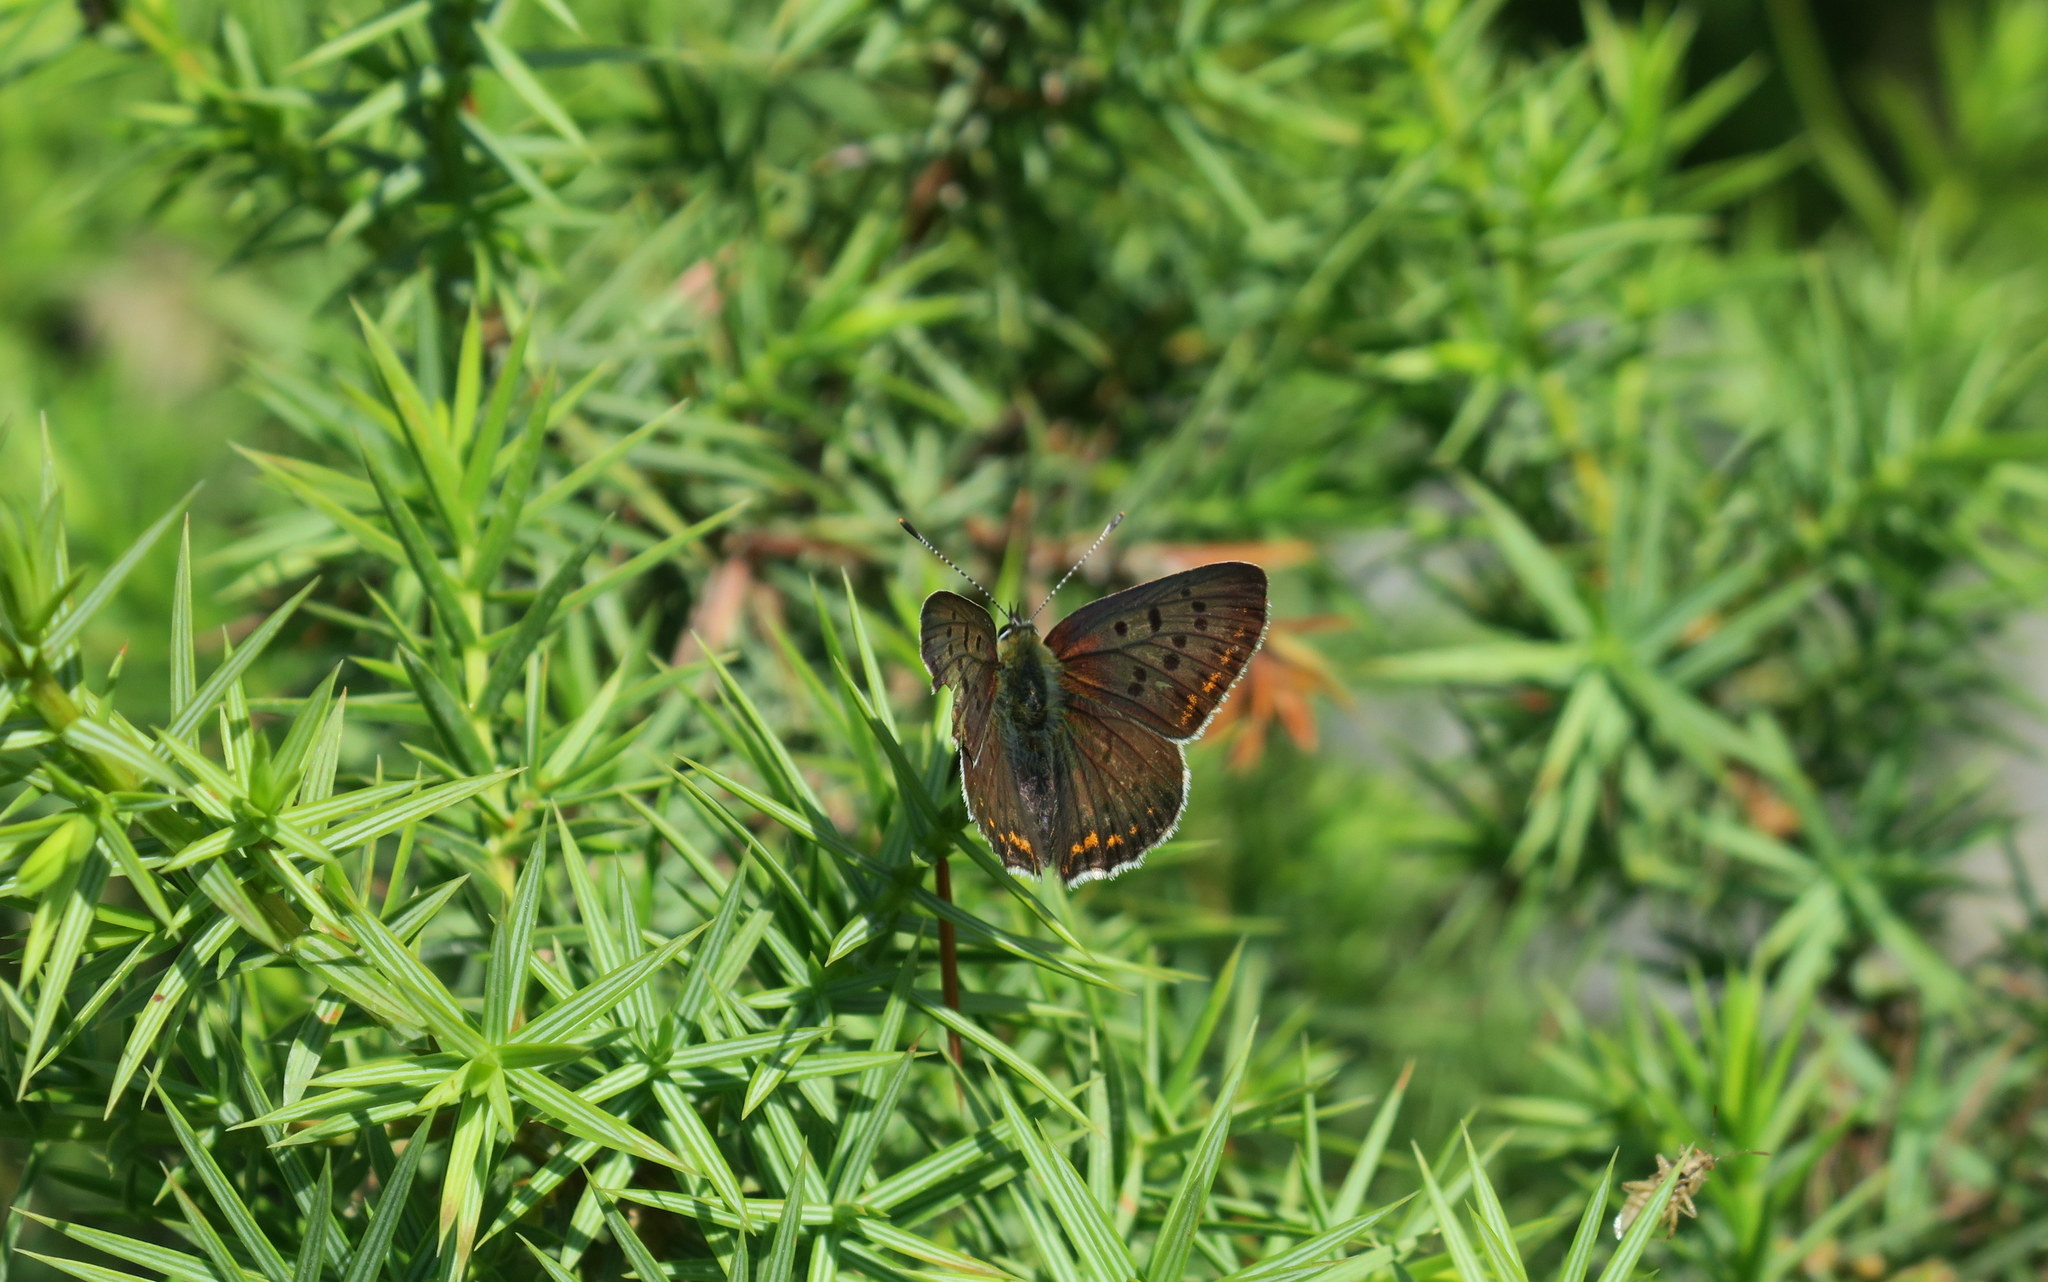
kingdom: Animalia
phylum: Arthropoda
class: Insecta
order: Lepidoptera
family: Lycaenidae
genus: Loweia
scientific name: Loweia tityrus
